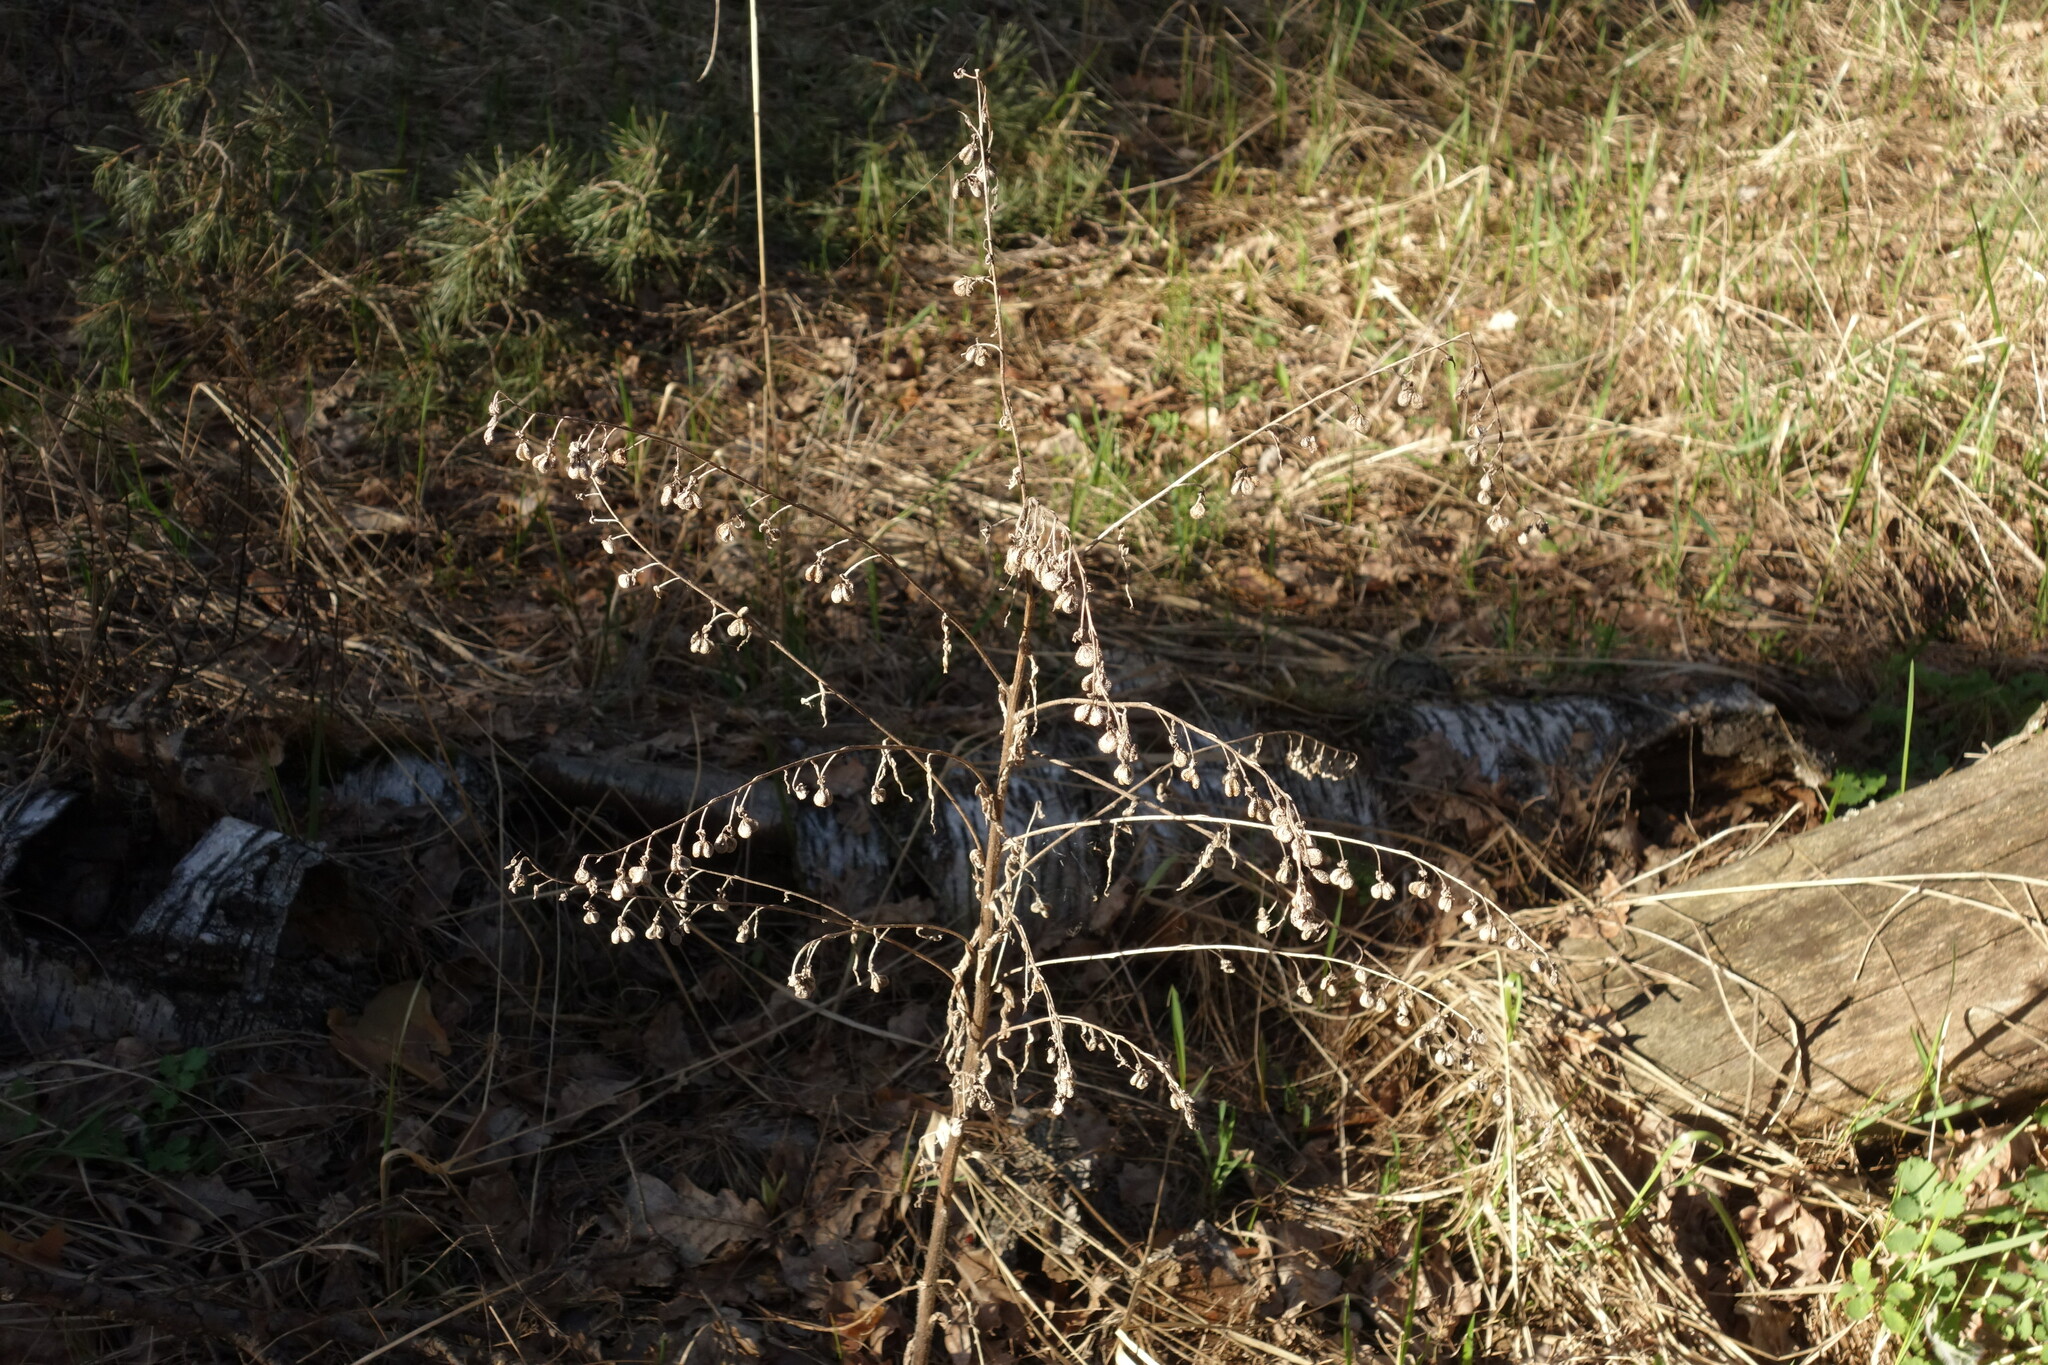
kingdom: Plantae
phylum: Tracheophyta
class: Magnoliopsida
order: Boraginales
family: Boraginaceae
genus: Cynoglossum
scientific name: Cynoglossum officinale
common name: Hound's-tongue
